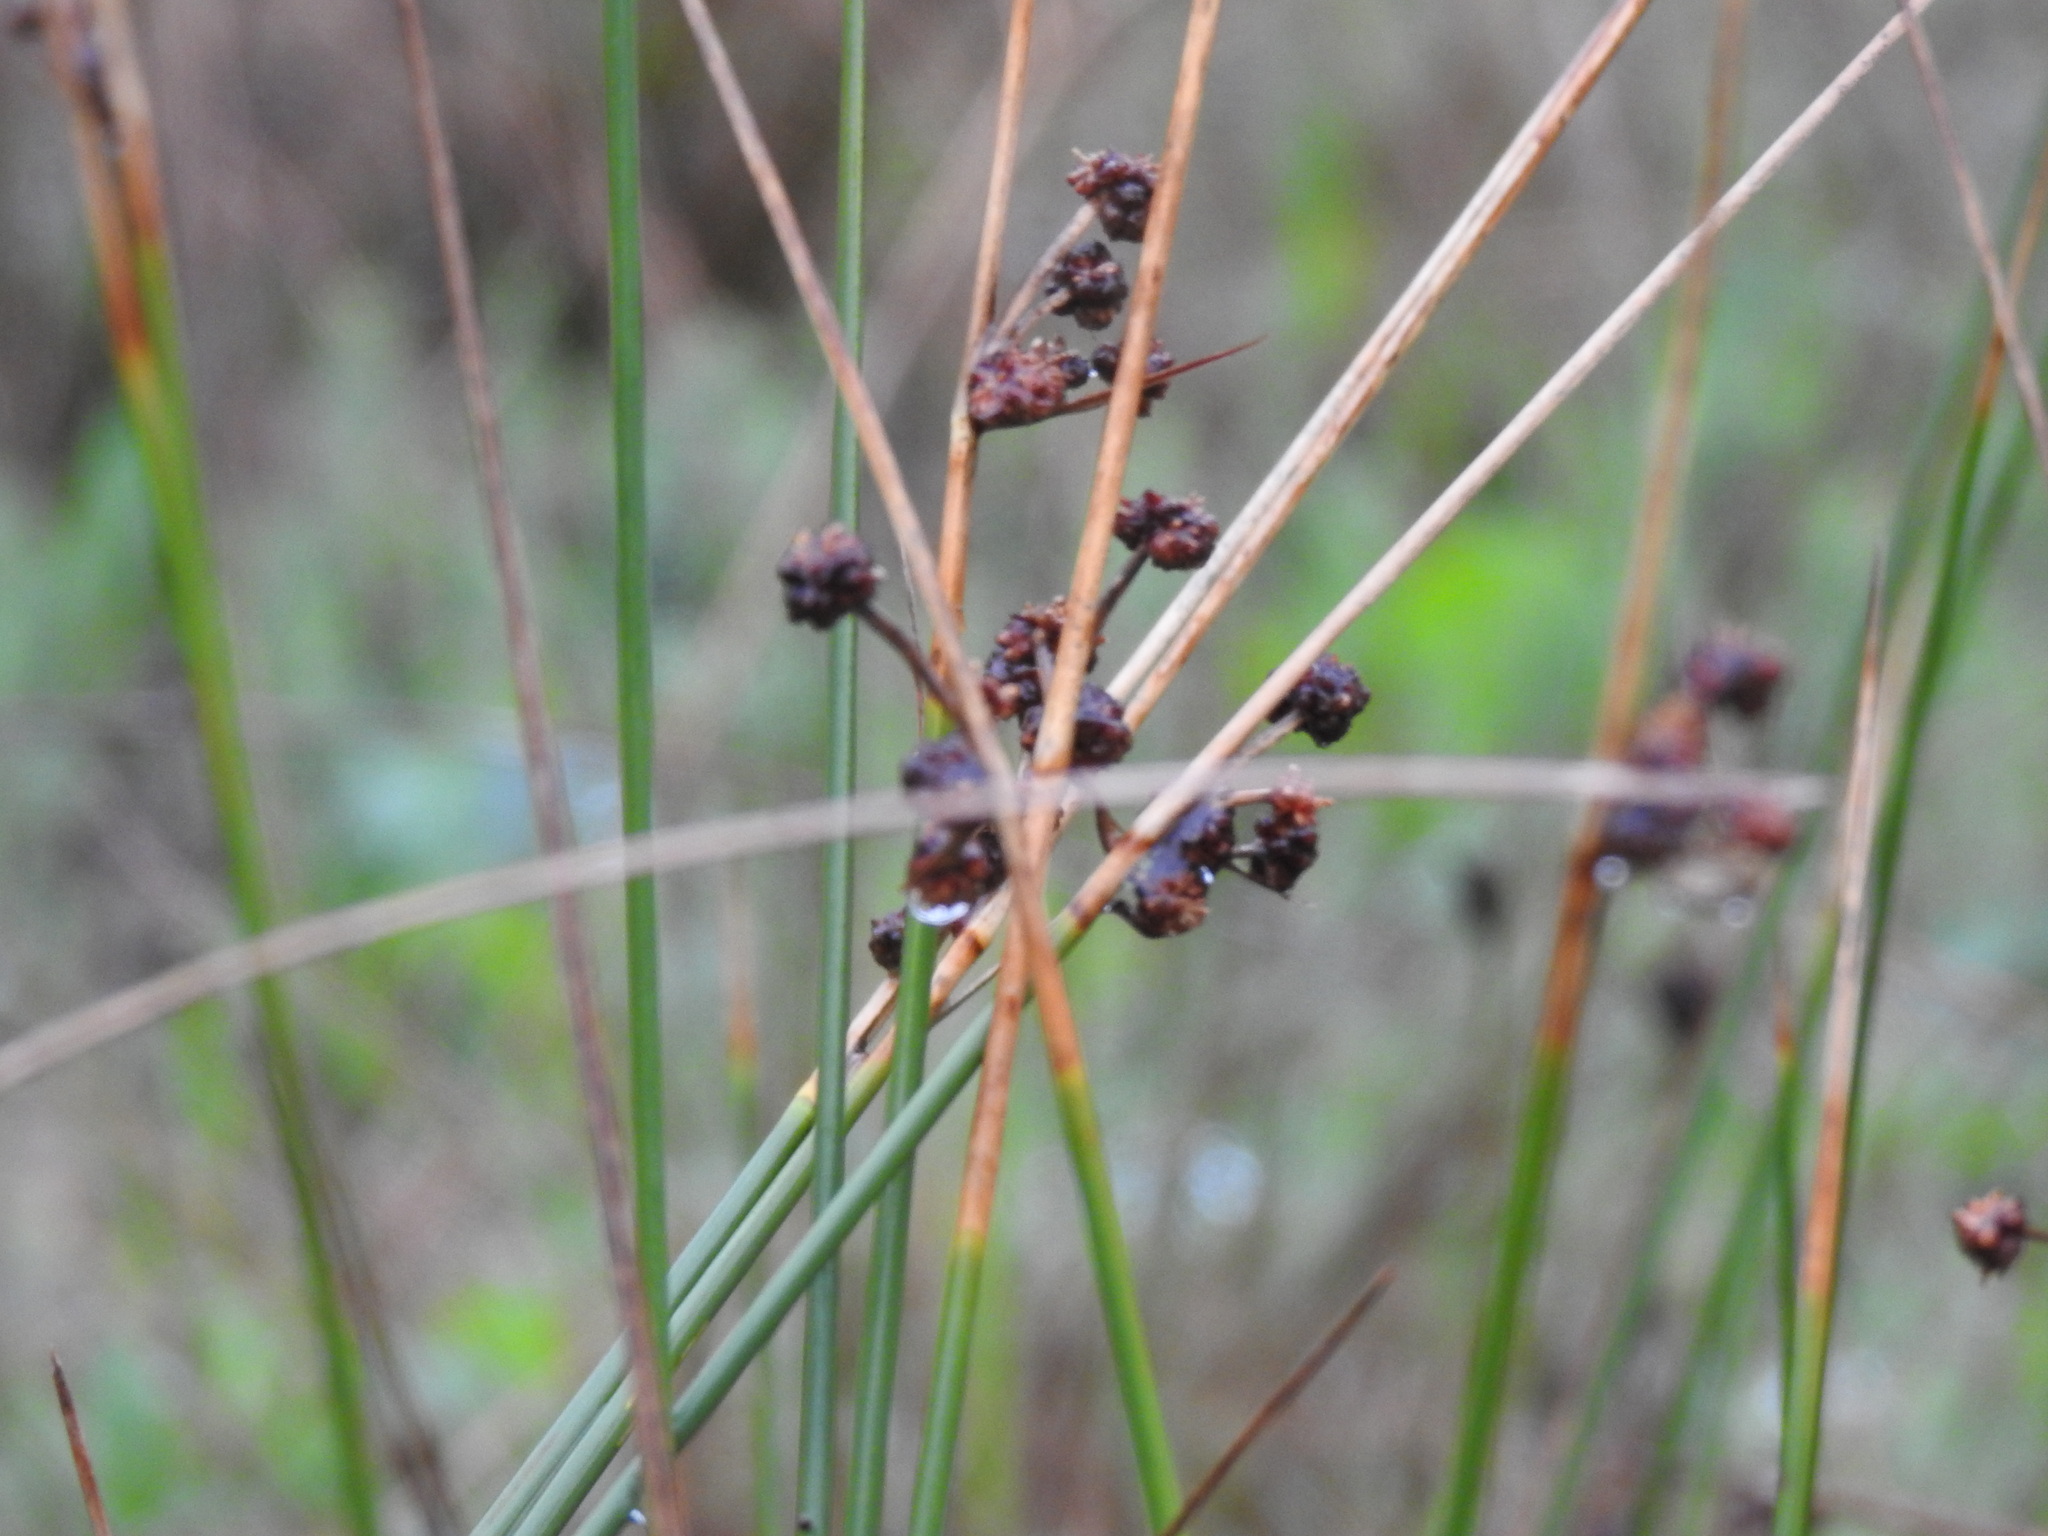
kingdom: Plantae
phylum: Tracheophyta
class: Liliopsida
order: Poales
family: Cyperaceae
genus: Scirpoides
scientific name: Scirpoides holoschoenus
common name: Round-headed club-rush
